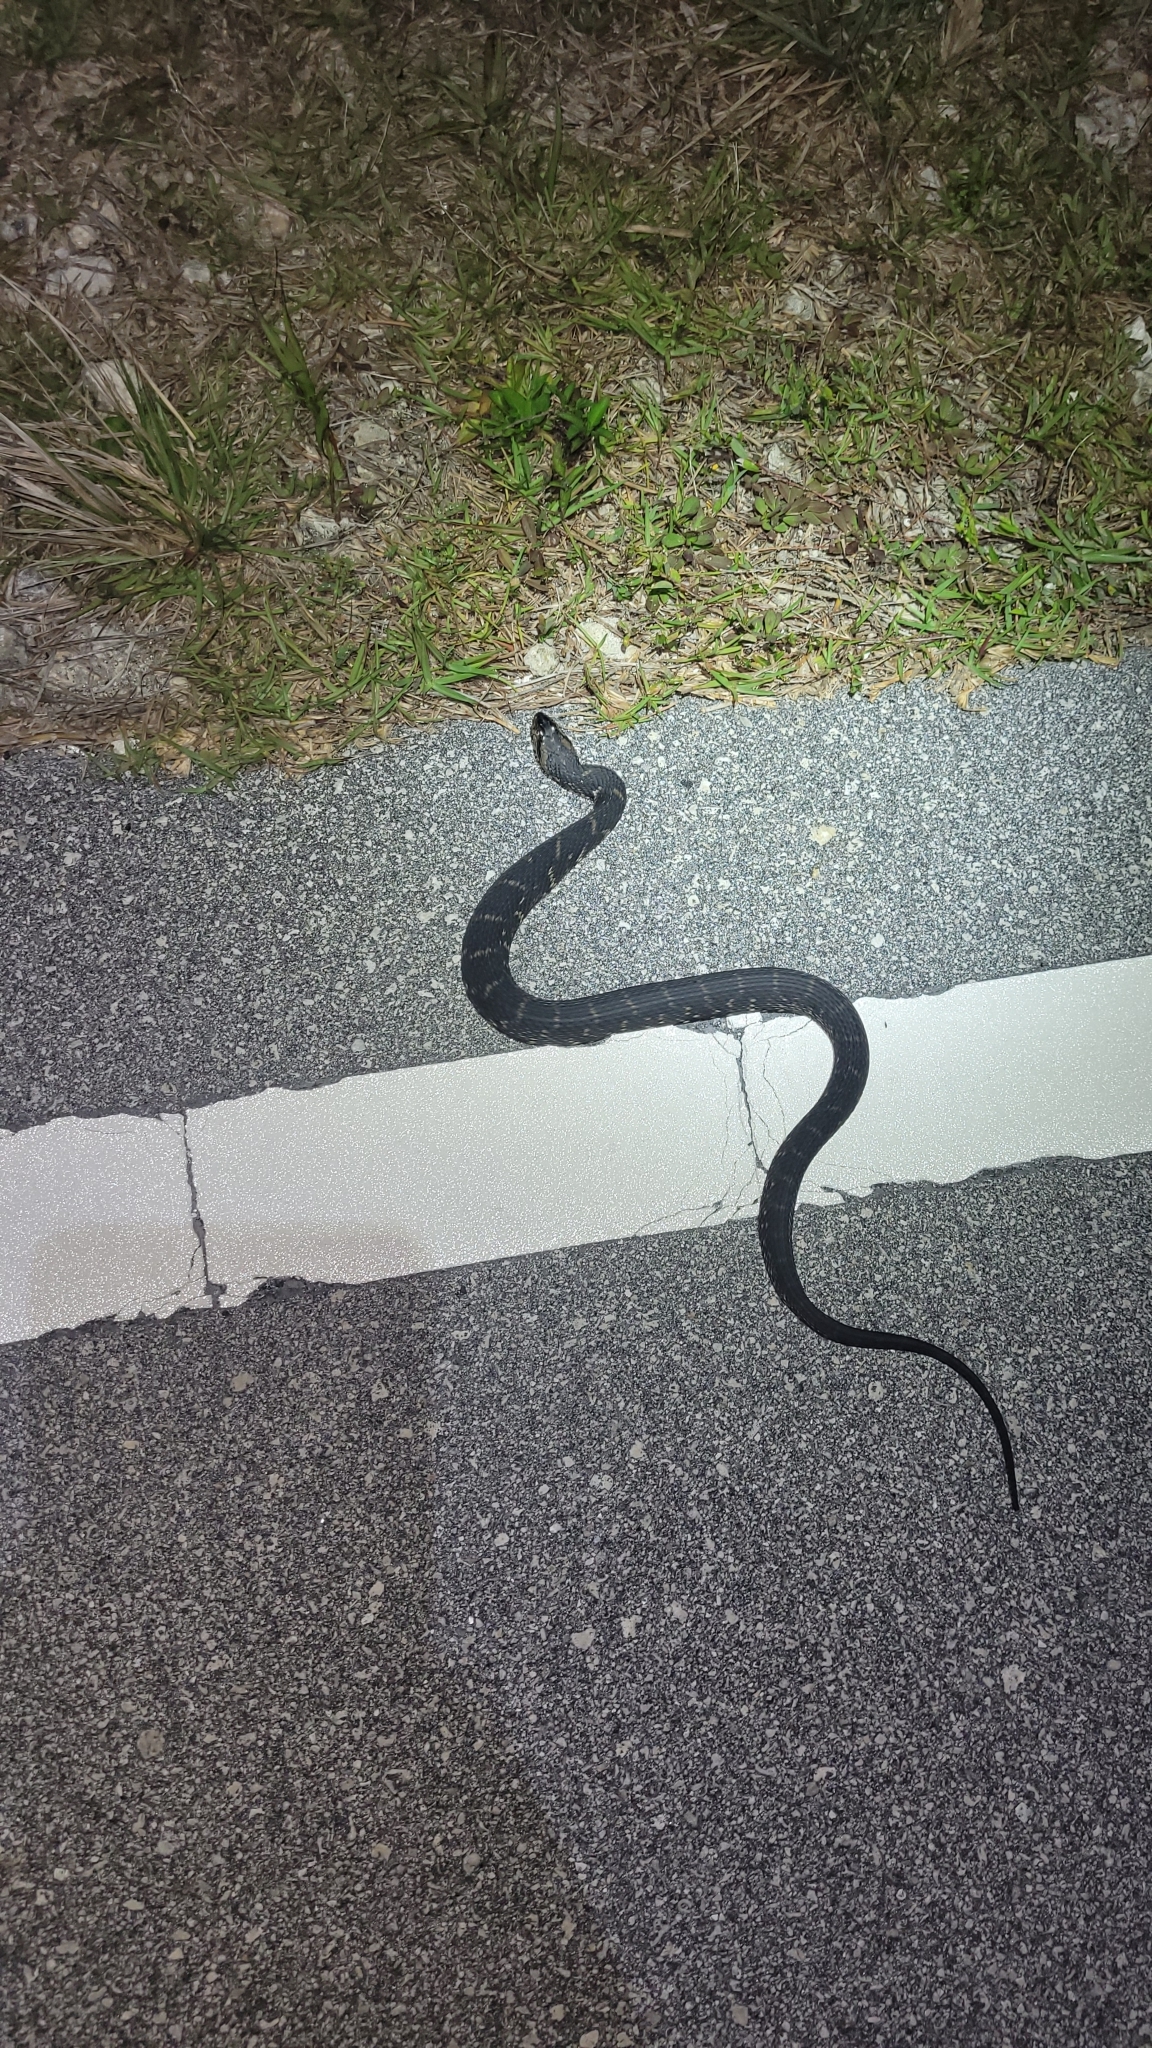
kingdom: Animalia
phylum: Chordata
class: Squamata
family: Colubridae
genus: Nerodia
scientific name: Nerodia fasciata
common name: Southern water snake
